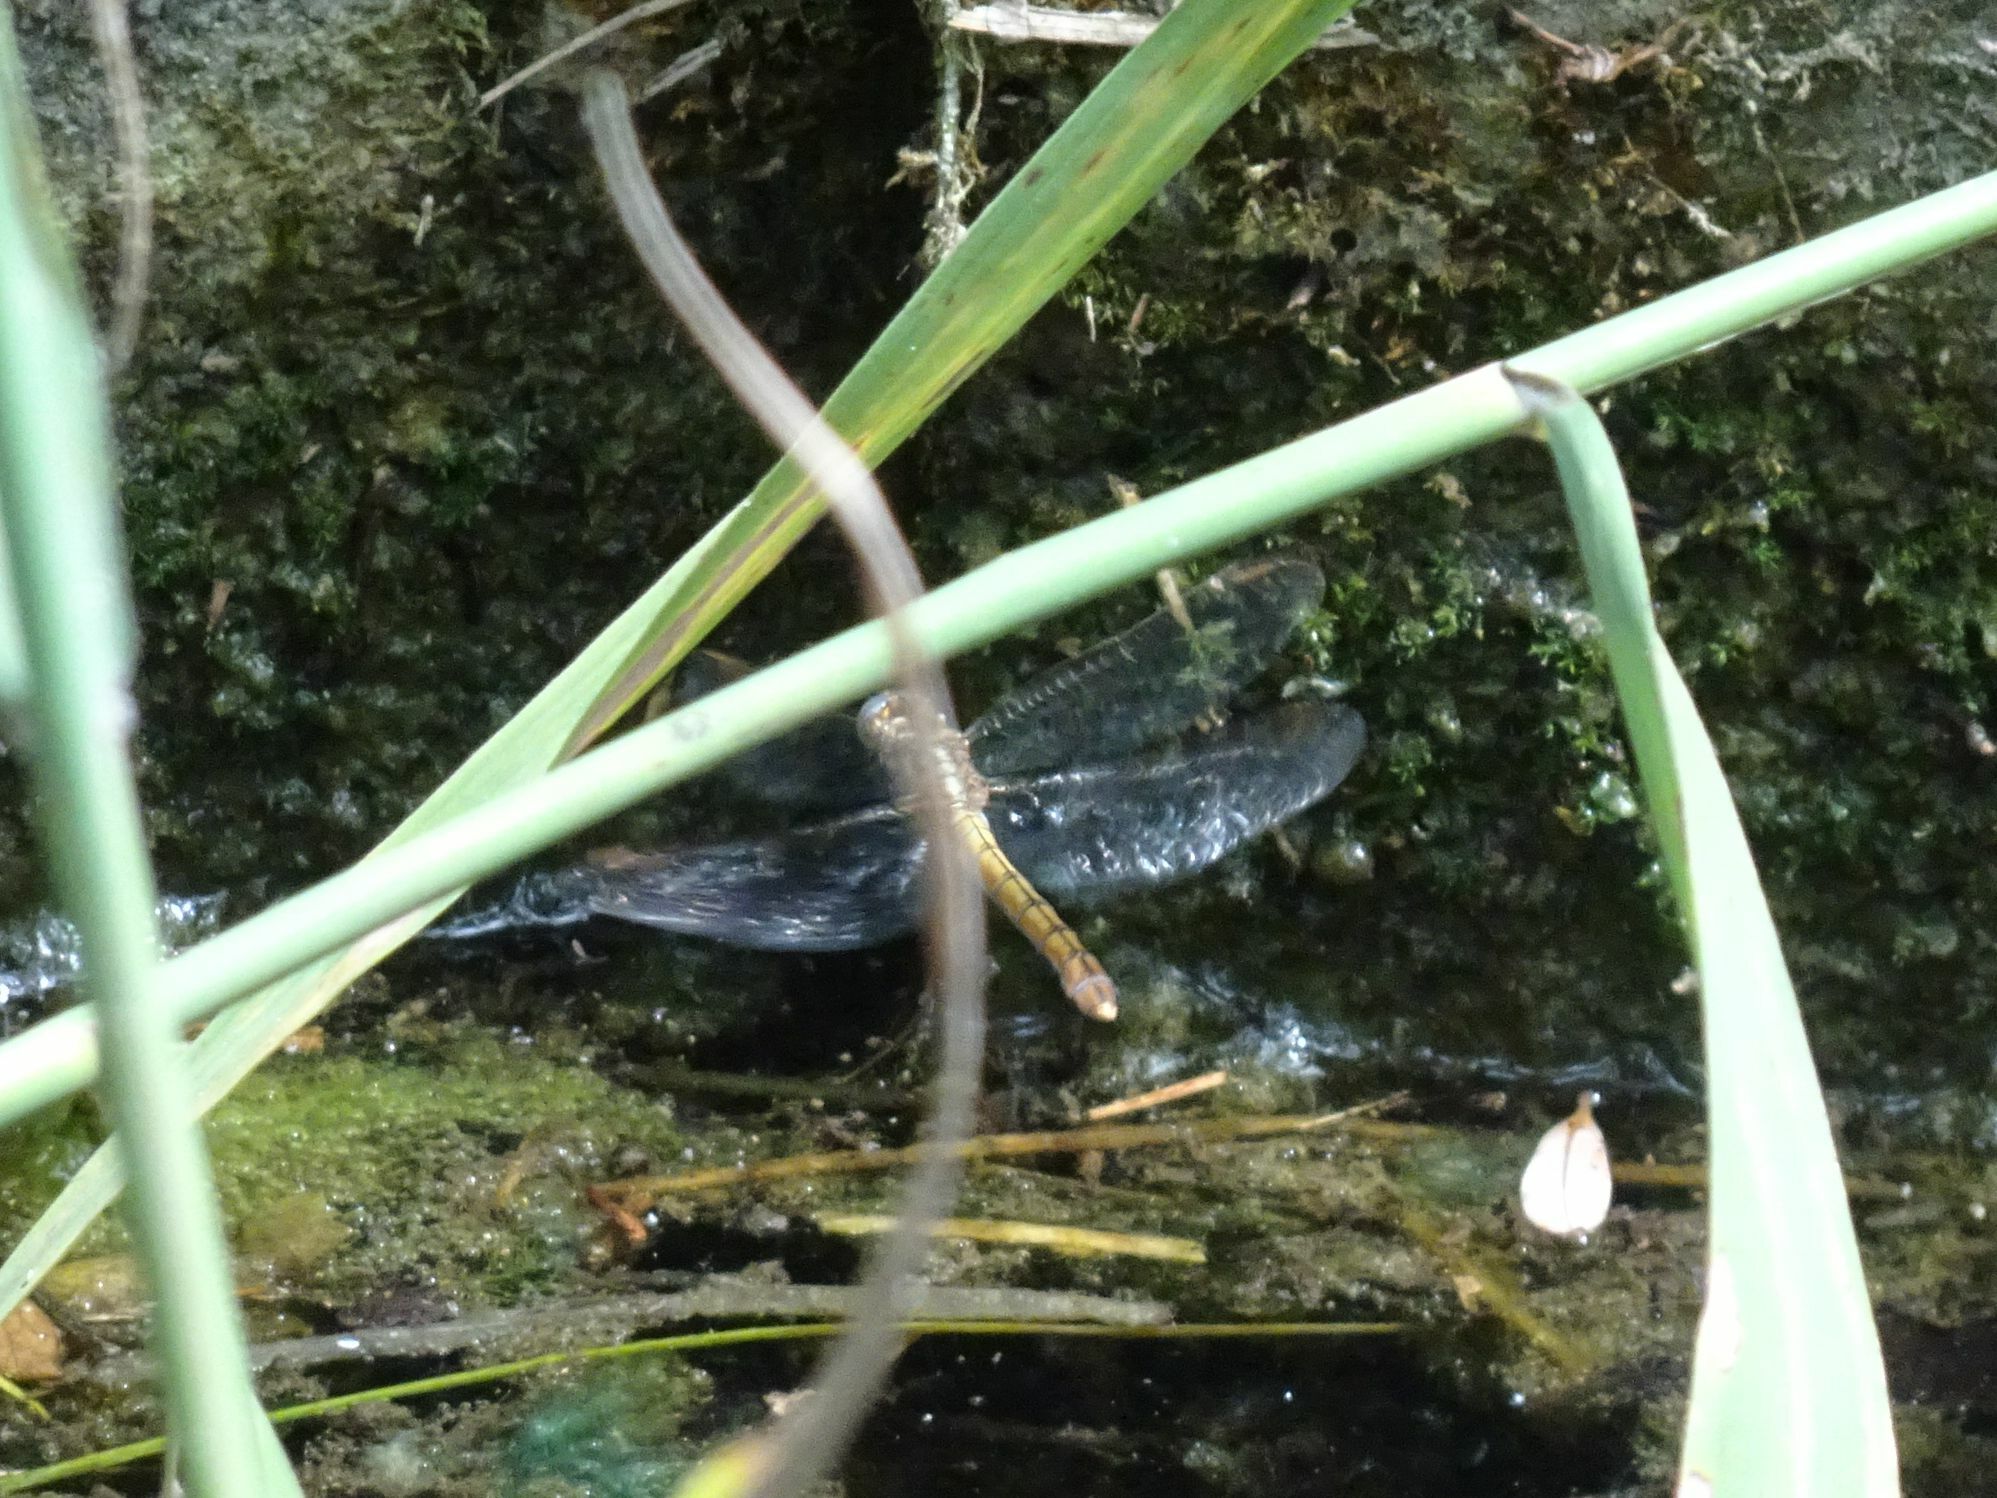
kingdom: Animalia
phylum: Arthropoda
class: Insecta
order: Odonata
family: Libellulidae
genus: Orthetrum
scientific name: Orthetrum coerulescens
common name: Keeled skimmer
